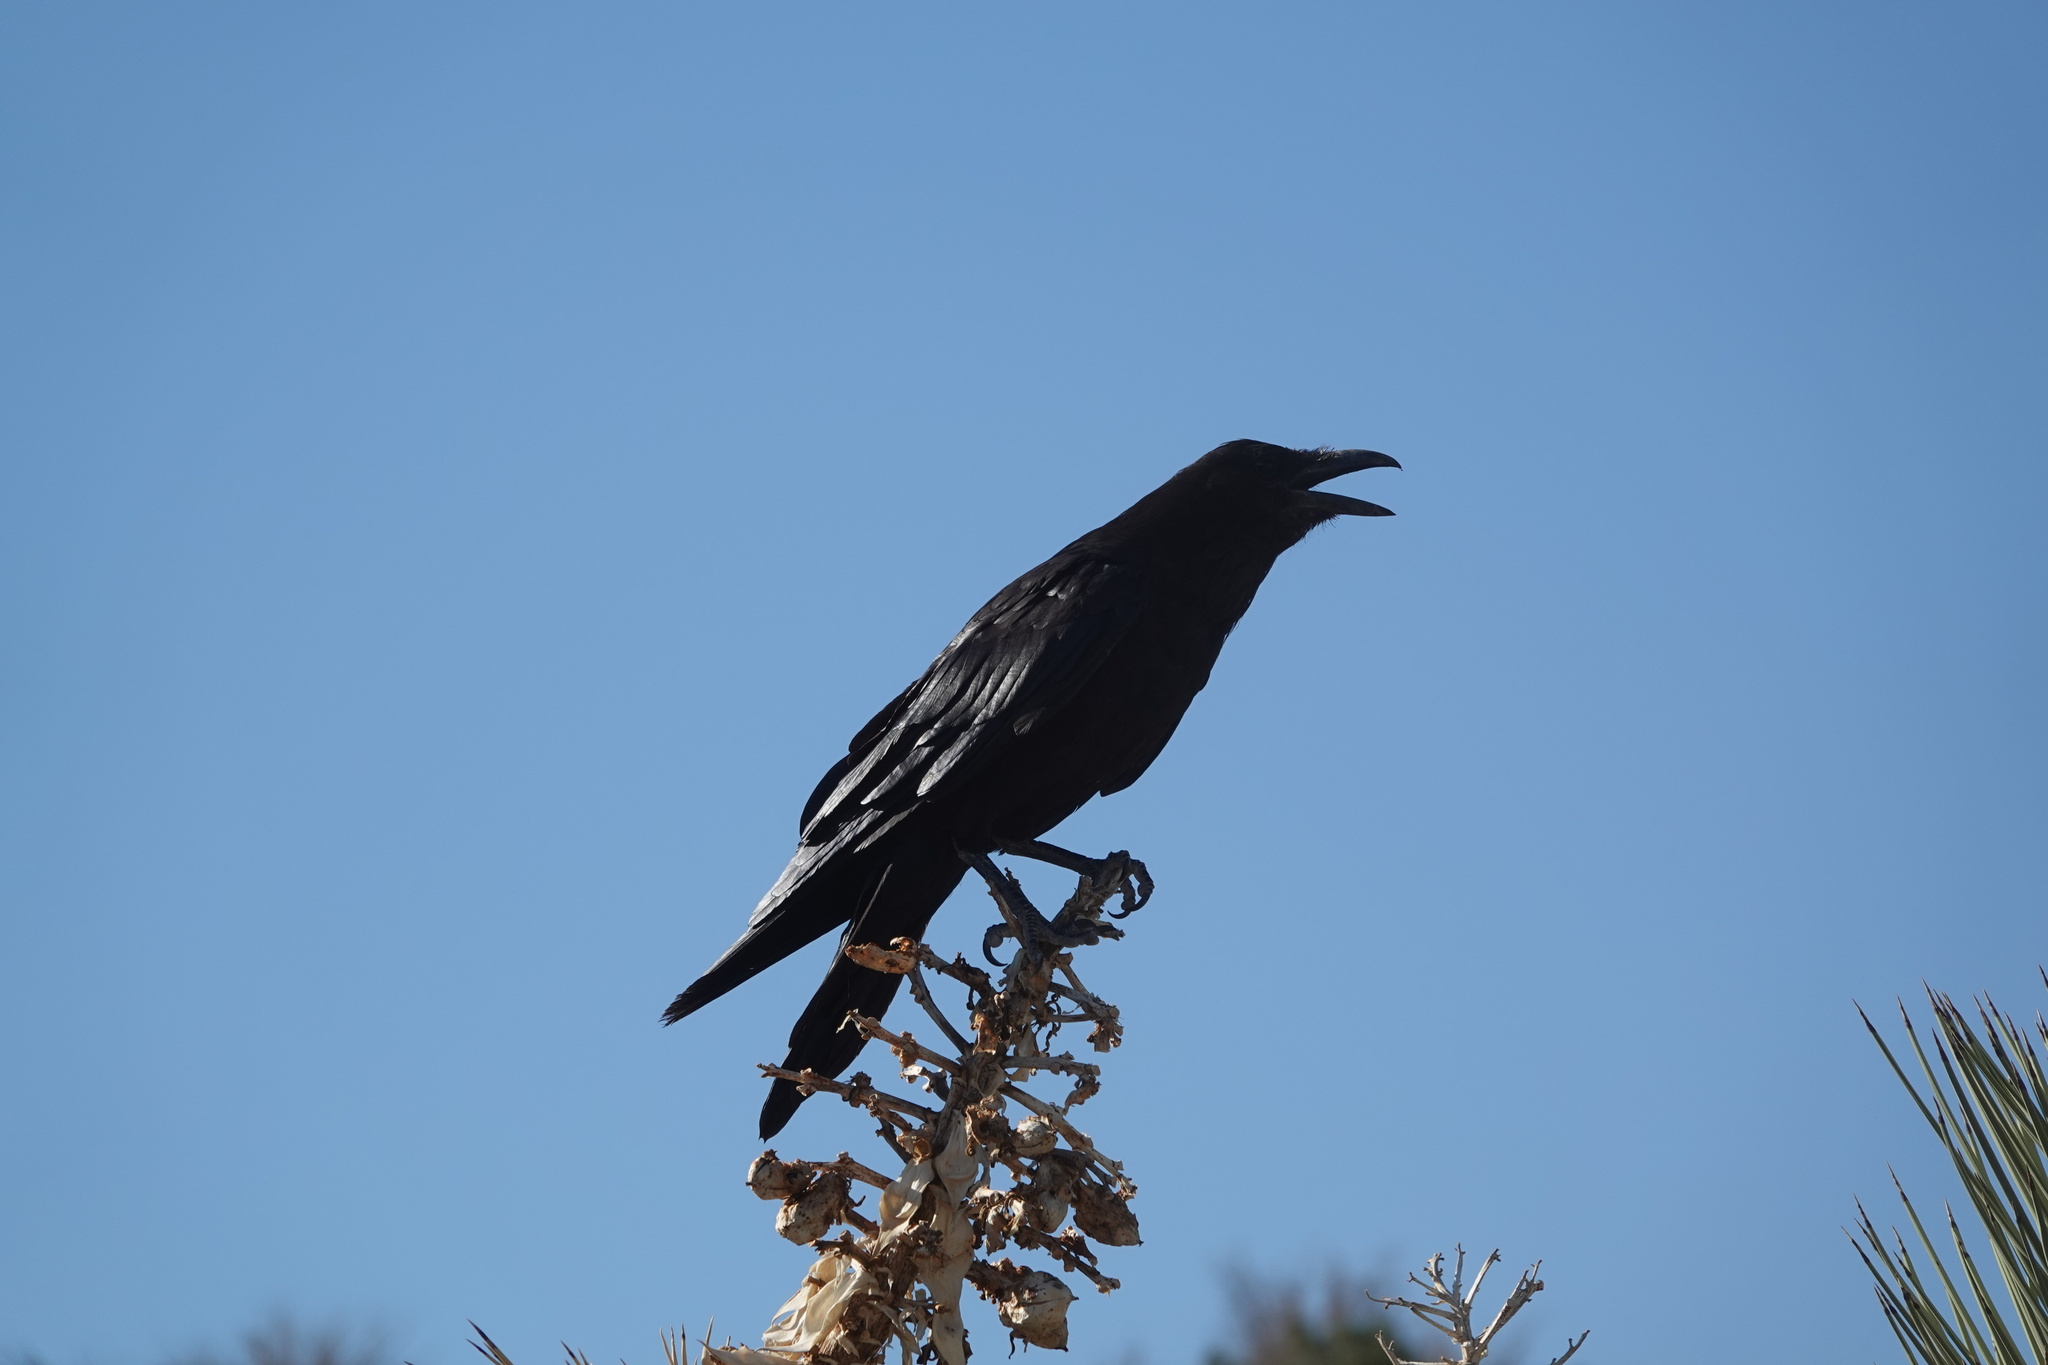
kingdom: Animalia
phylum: Chordata
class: Aves
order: Passeriformes
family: Corvidae
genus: Corvus
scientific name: Corvus corax
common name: Common raven
